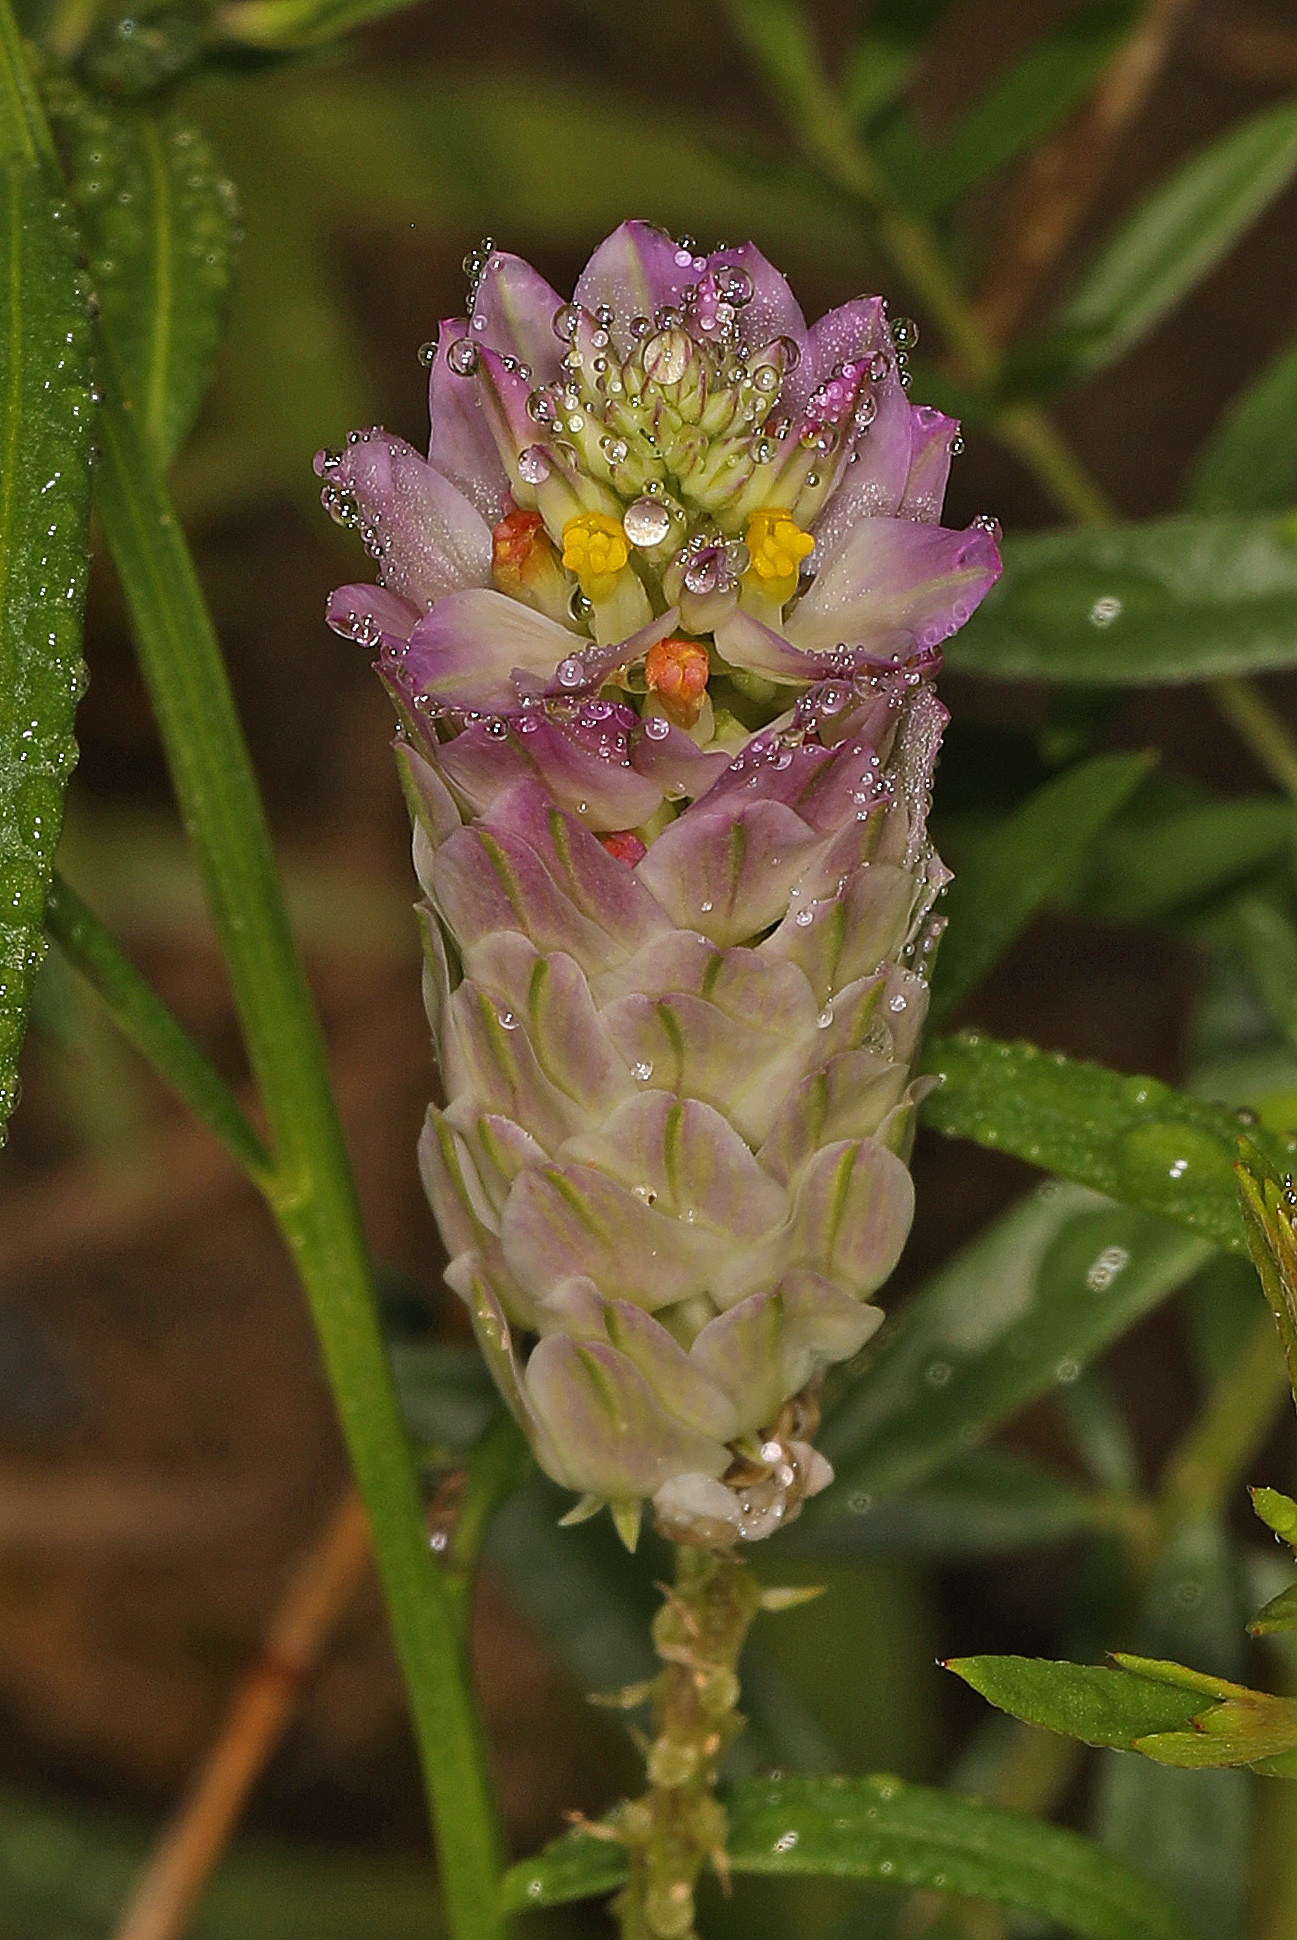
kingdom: Plantae
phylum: Tracheophyta
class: Magnoliopsida
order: Fabales
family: Polygalaceae
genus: Polygala
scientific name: Polygala sanguinea
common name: Blood milkwort
